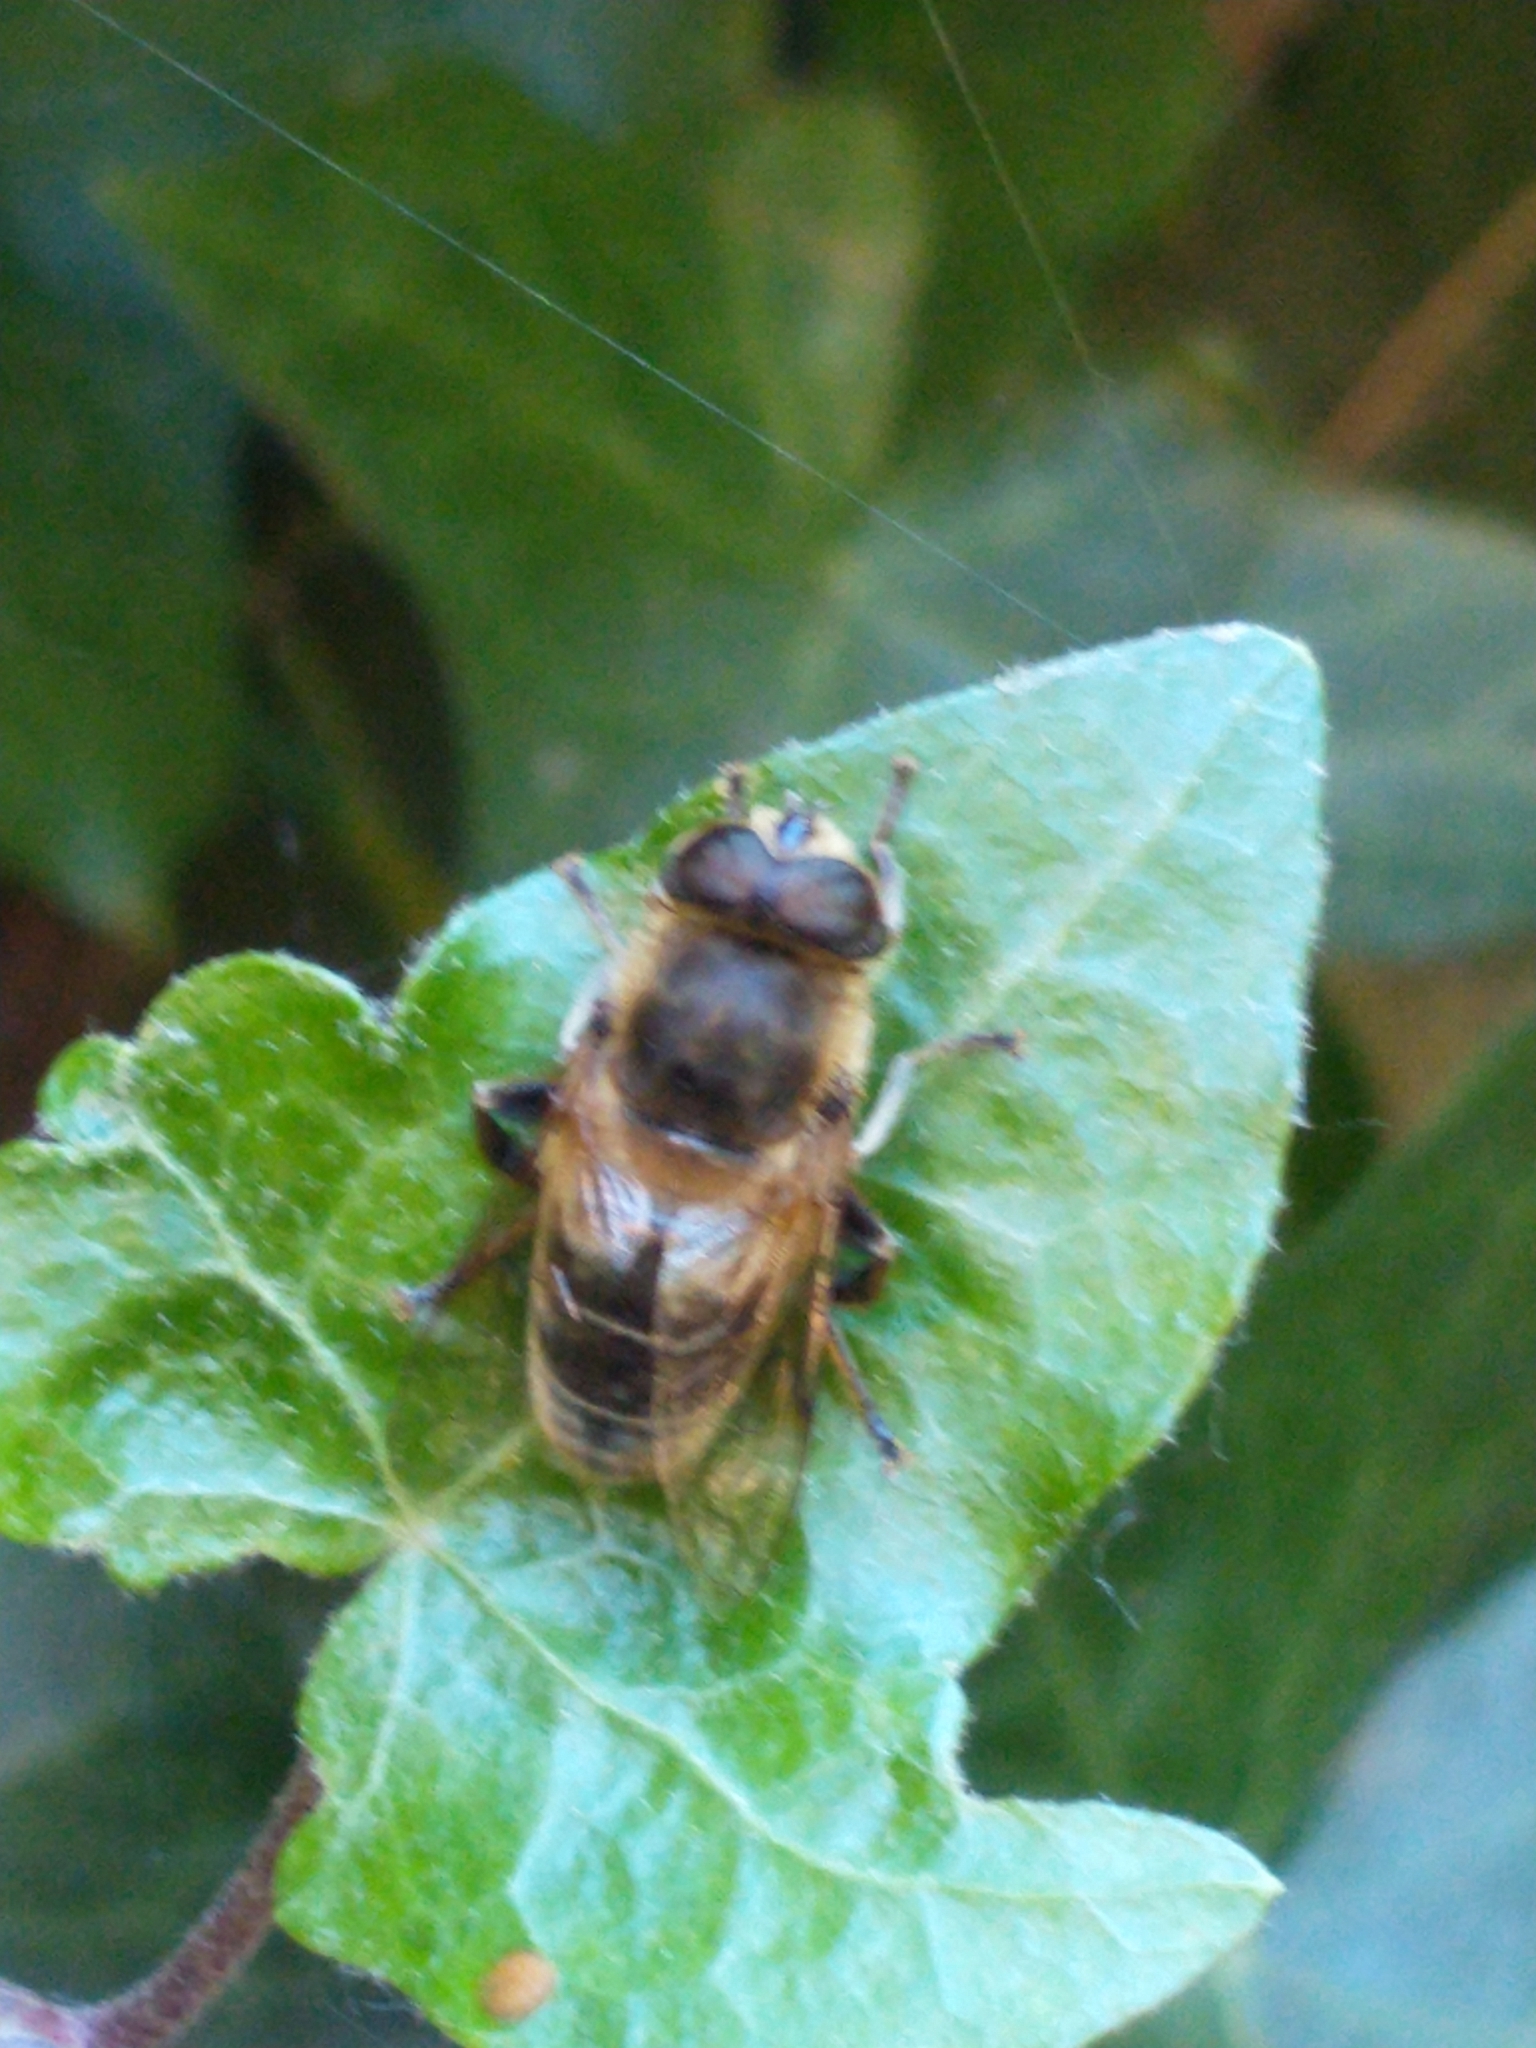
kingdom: Animalia
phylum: Arthropoda
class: Insecta
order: Diptera
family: Syrphidae
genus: Eristalis
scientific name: Eristalis tenax
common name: Drone fly
